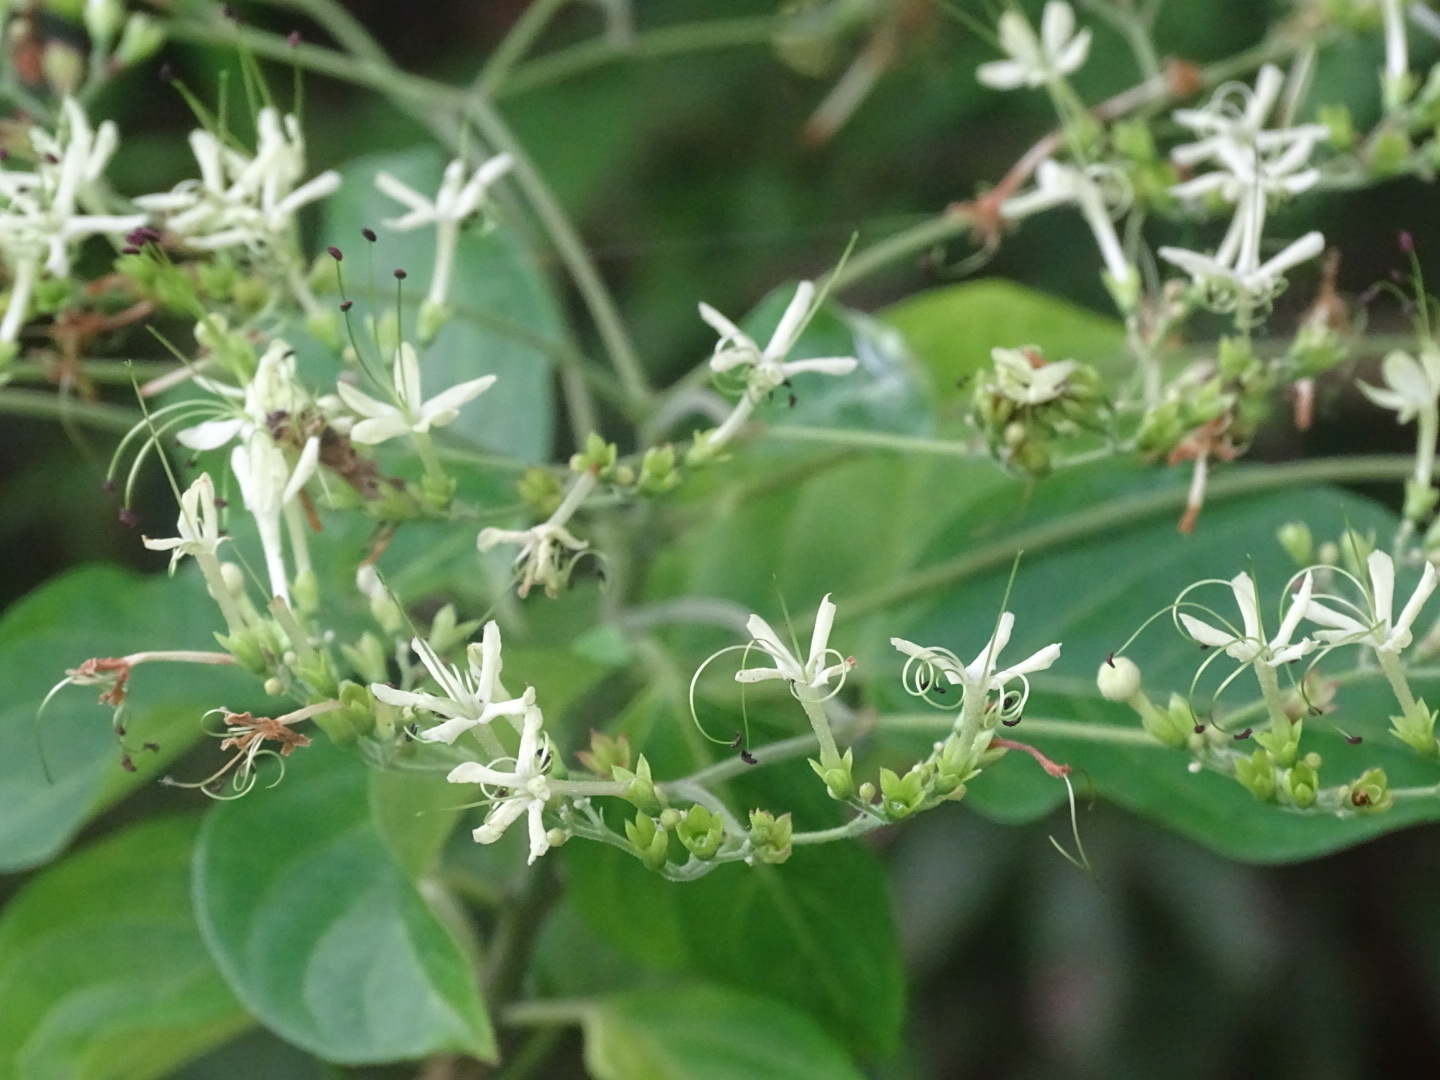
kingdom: Plantae
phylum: Tracheophyta
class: Magnoliopsida
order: Lamiales
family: Lamiaceae
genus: Clerodendrum
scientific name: Clerodendrum cyrtophyllum
